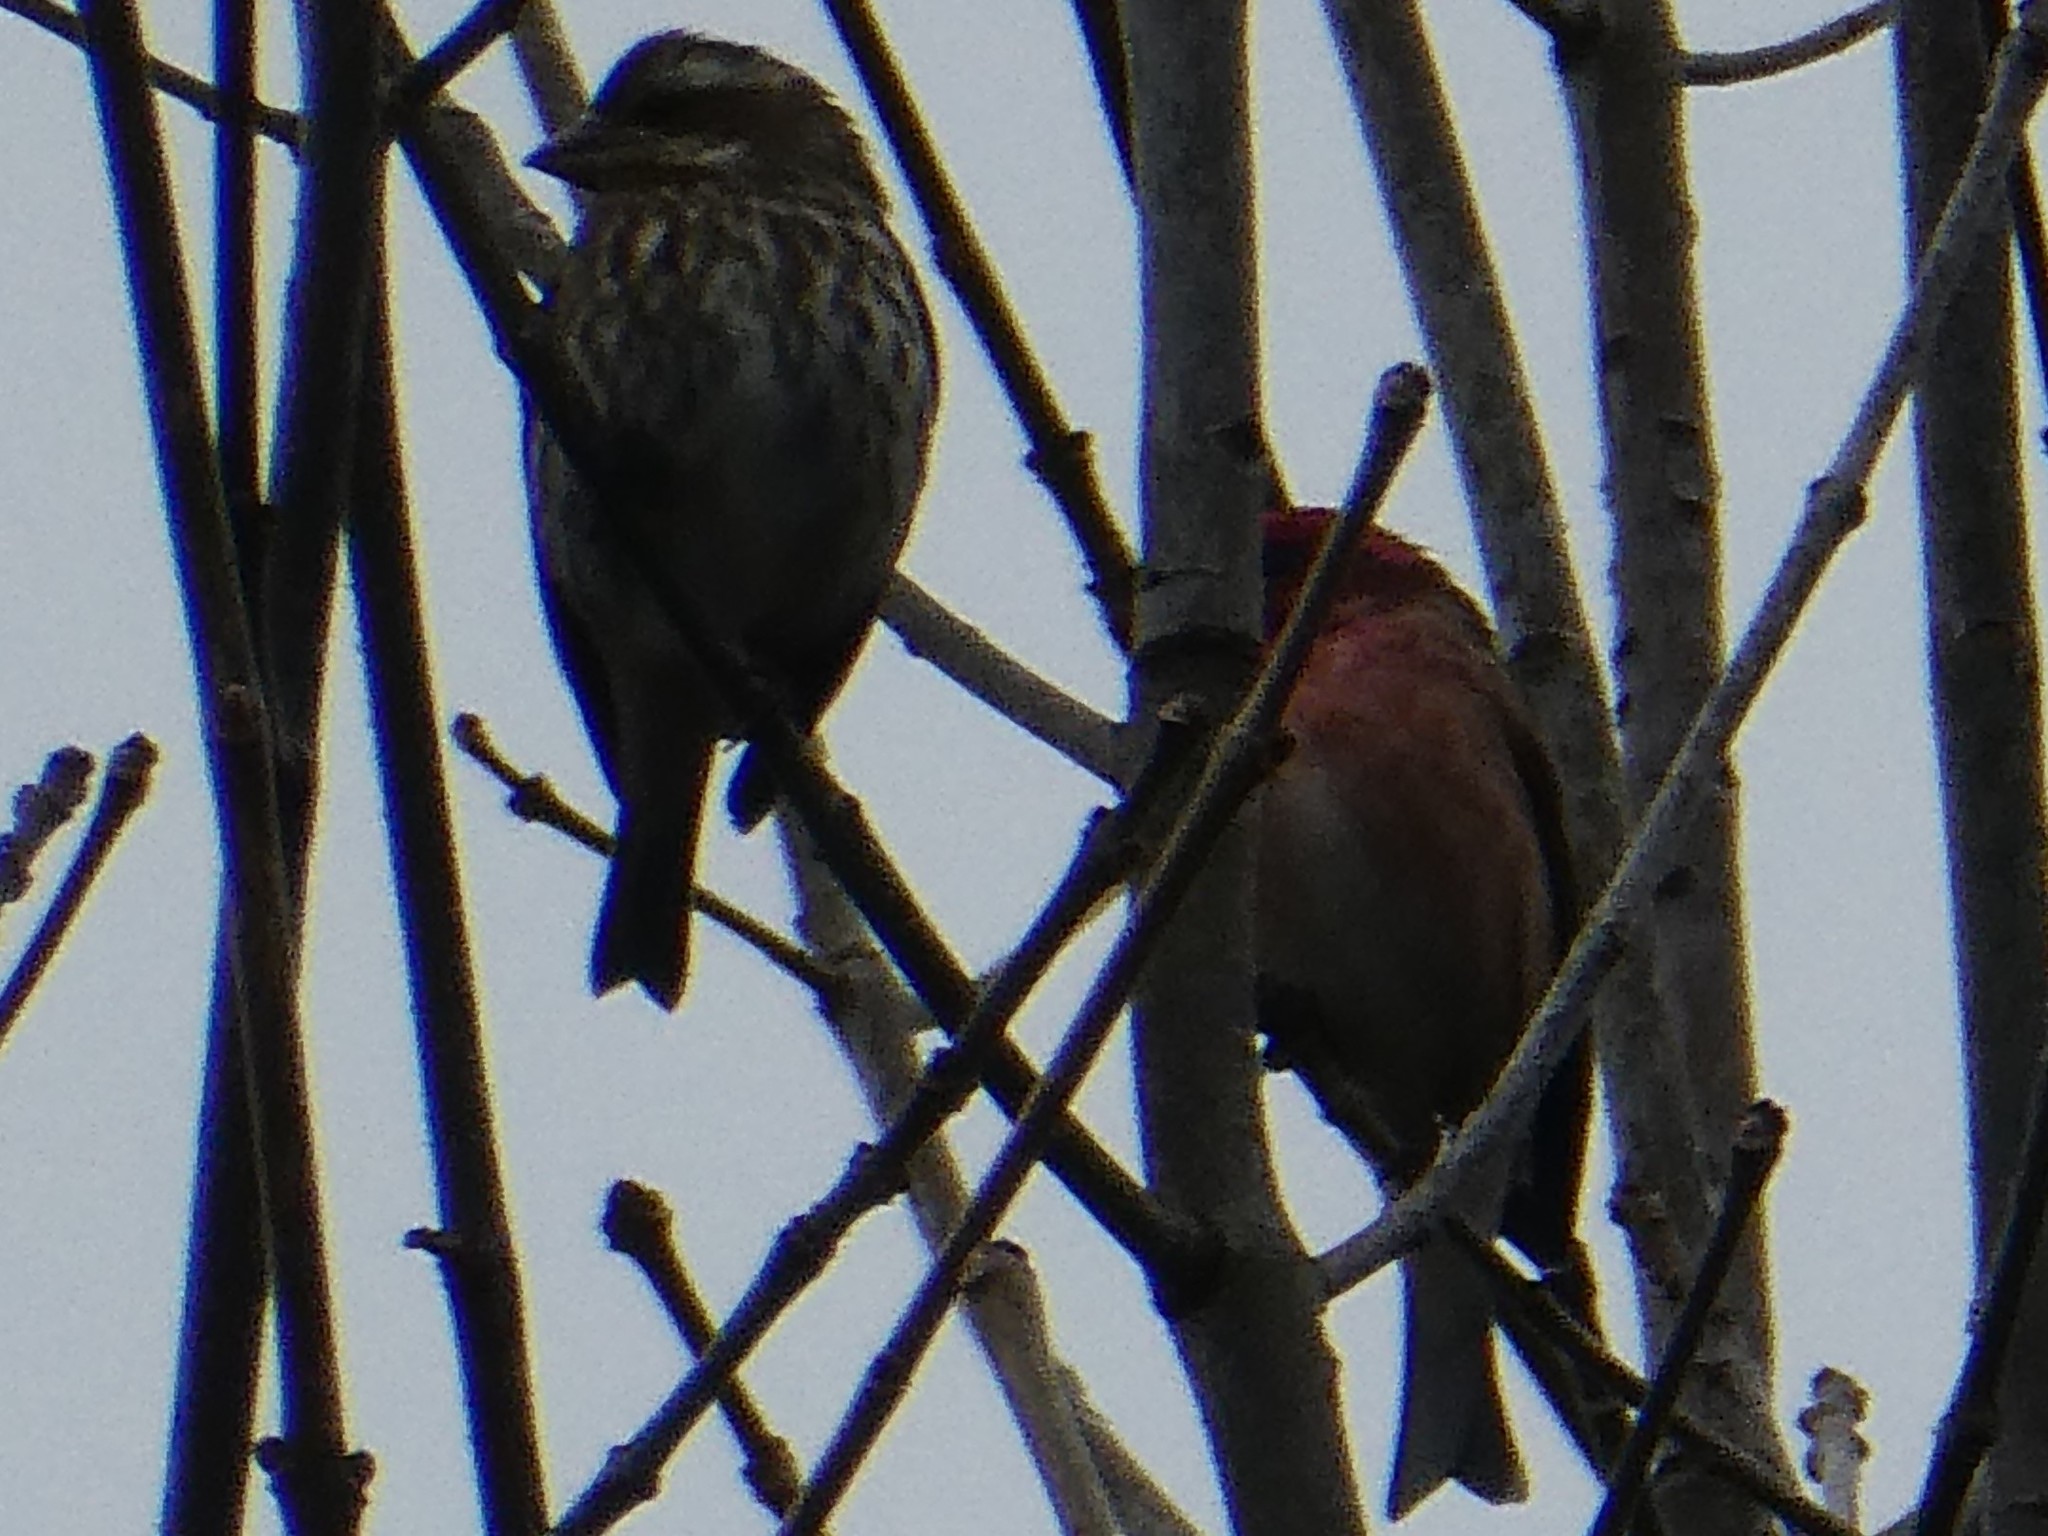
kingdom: Animalia
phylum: Chordata
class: Aves
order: Passeriformes
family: Fringillidae
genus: Haemorhous
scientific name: Haemorhous purpureus
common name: Purple finch
